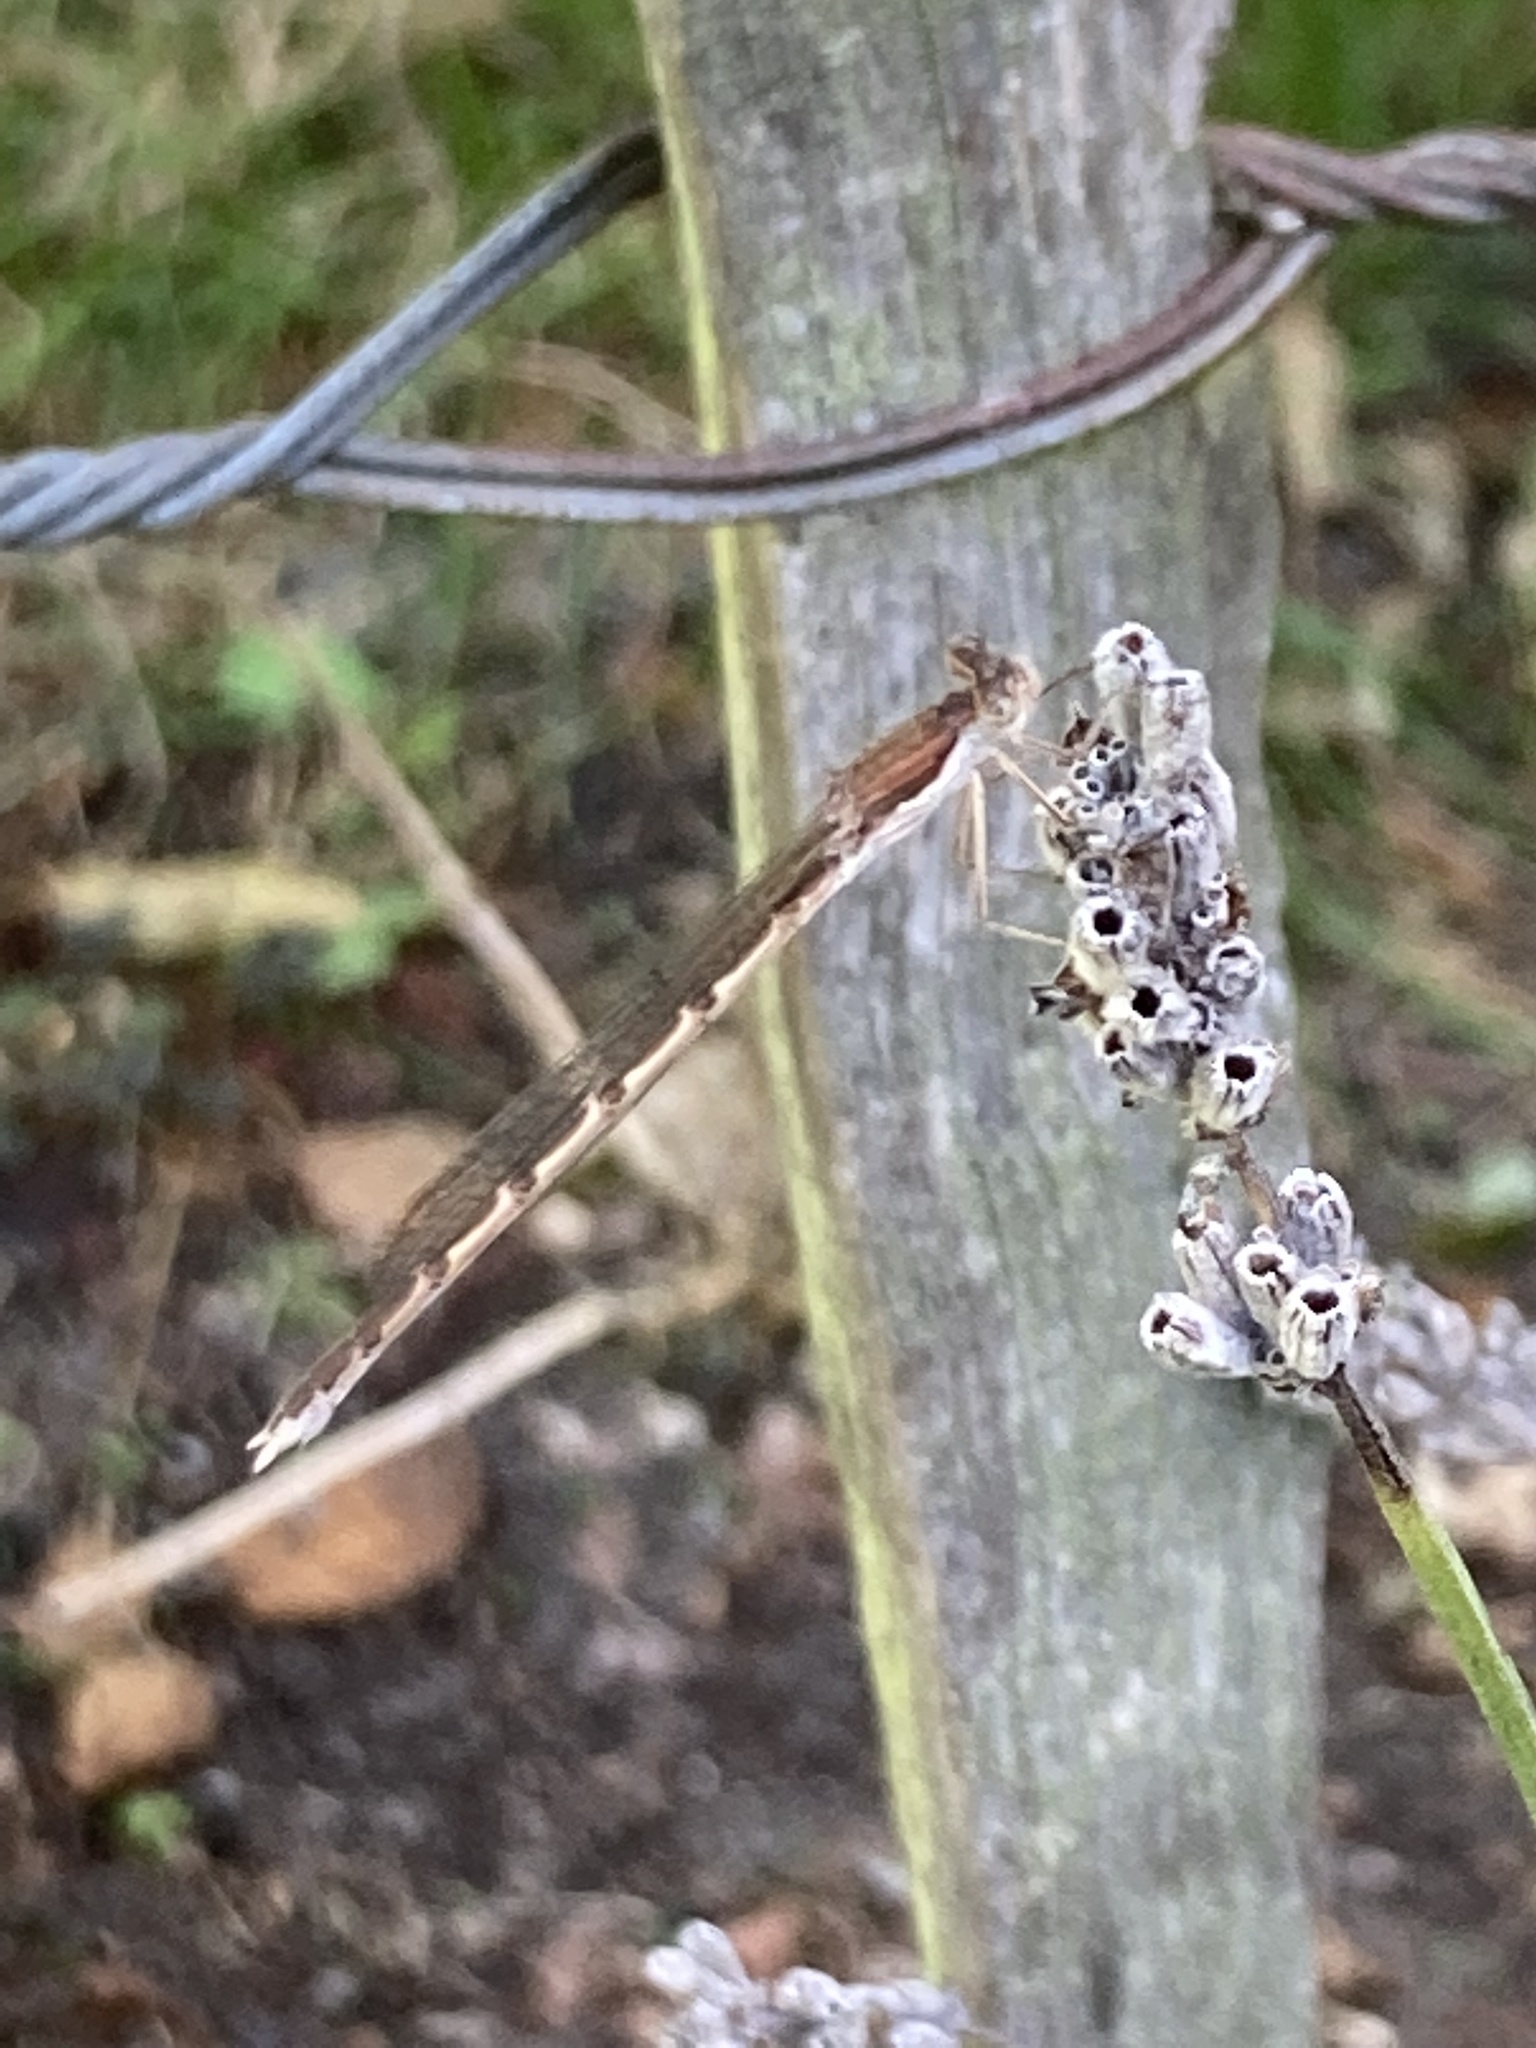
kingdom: Animalia
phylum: Arthropoda
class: Insecta
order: Odonata
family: Lestidae
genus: Sympecma
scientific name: Sympecma fusca
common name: Common winter damsel
